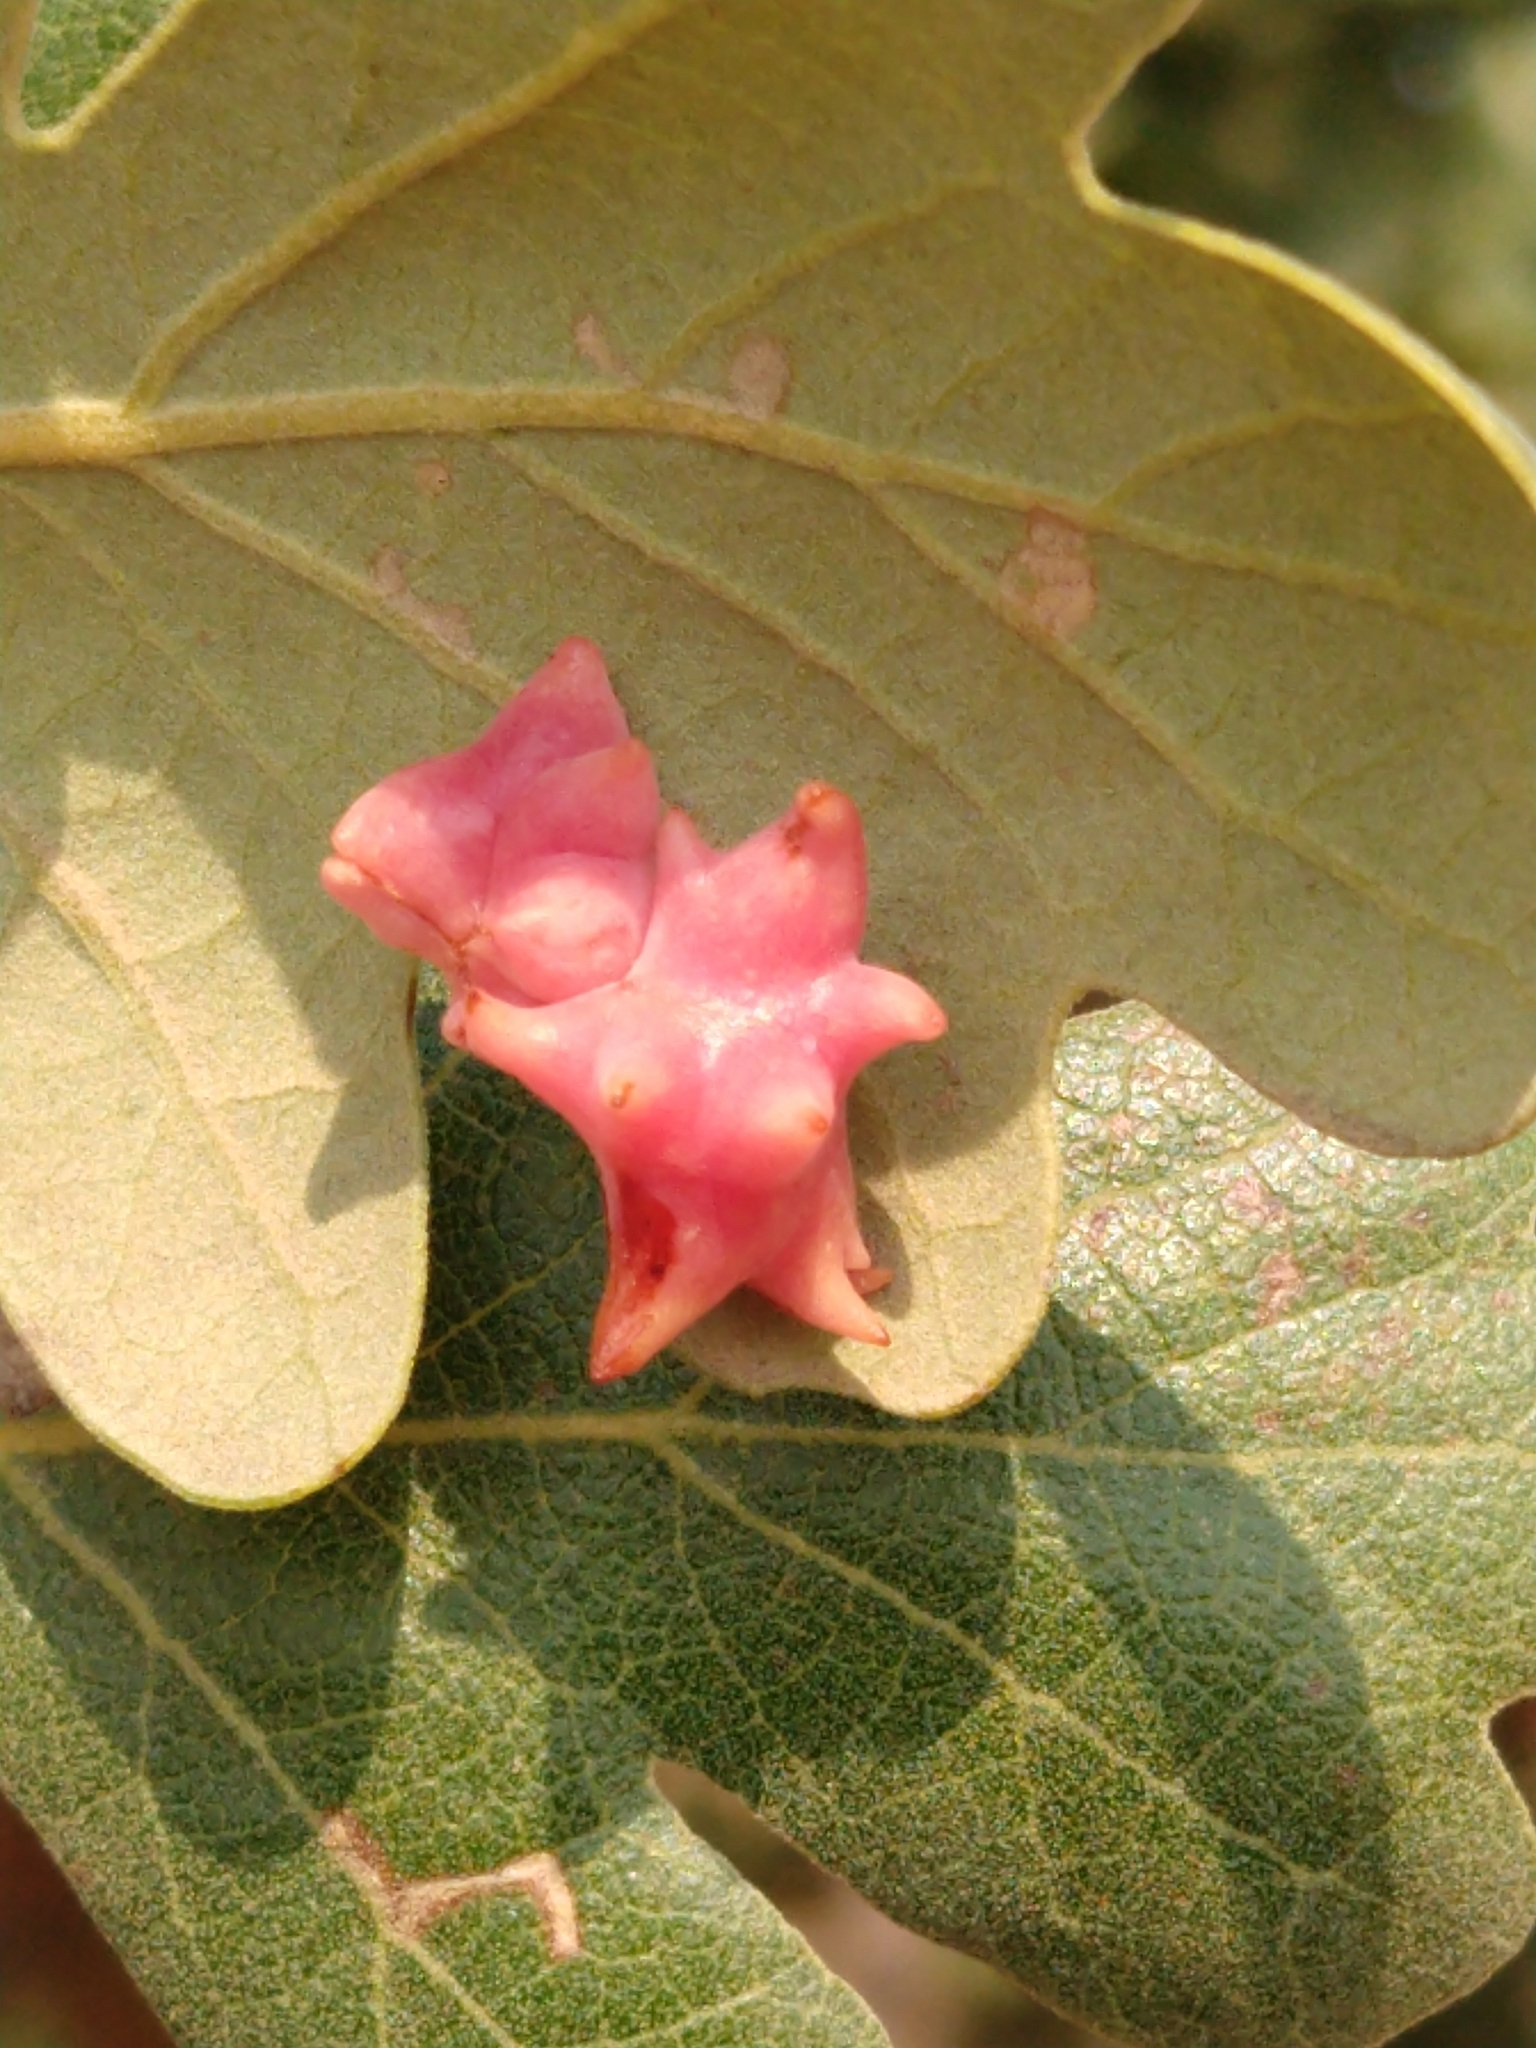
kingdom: Animalia
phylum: Arthropoda
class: Insecta
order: Hymenoptera
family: Cynipidae
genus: Cynips
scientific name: Cynips douglasi
